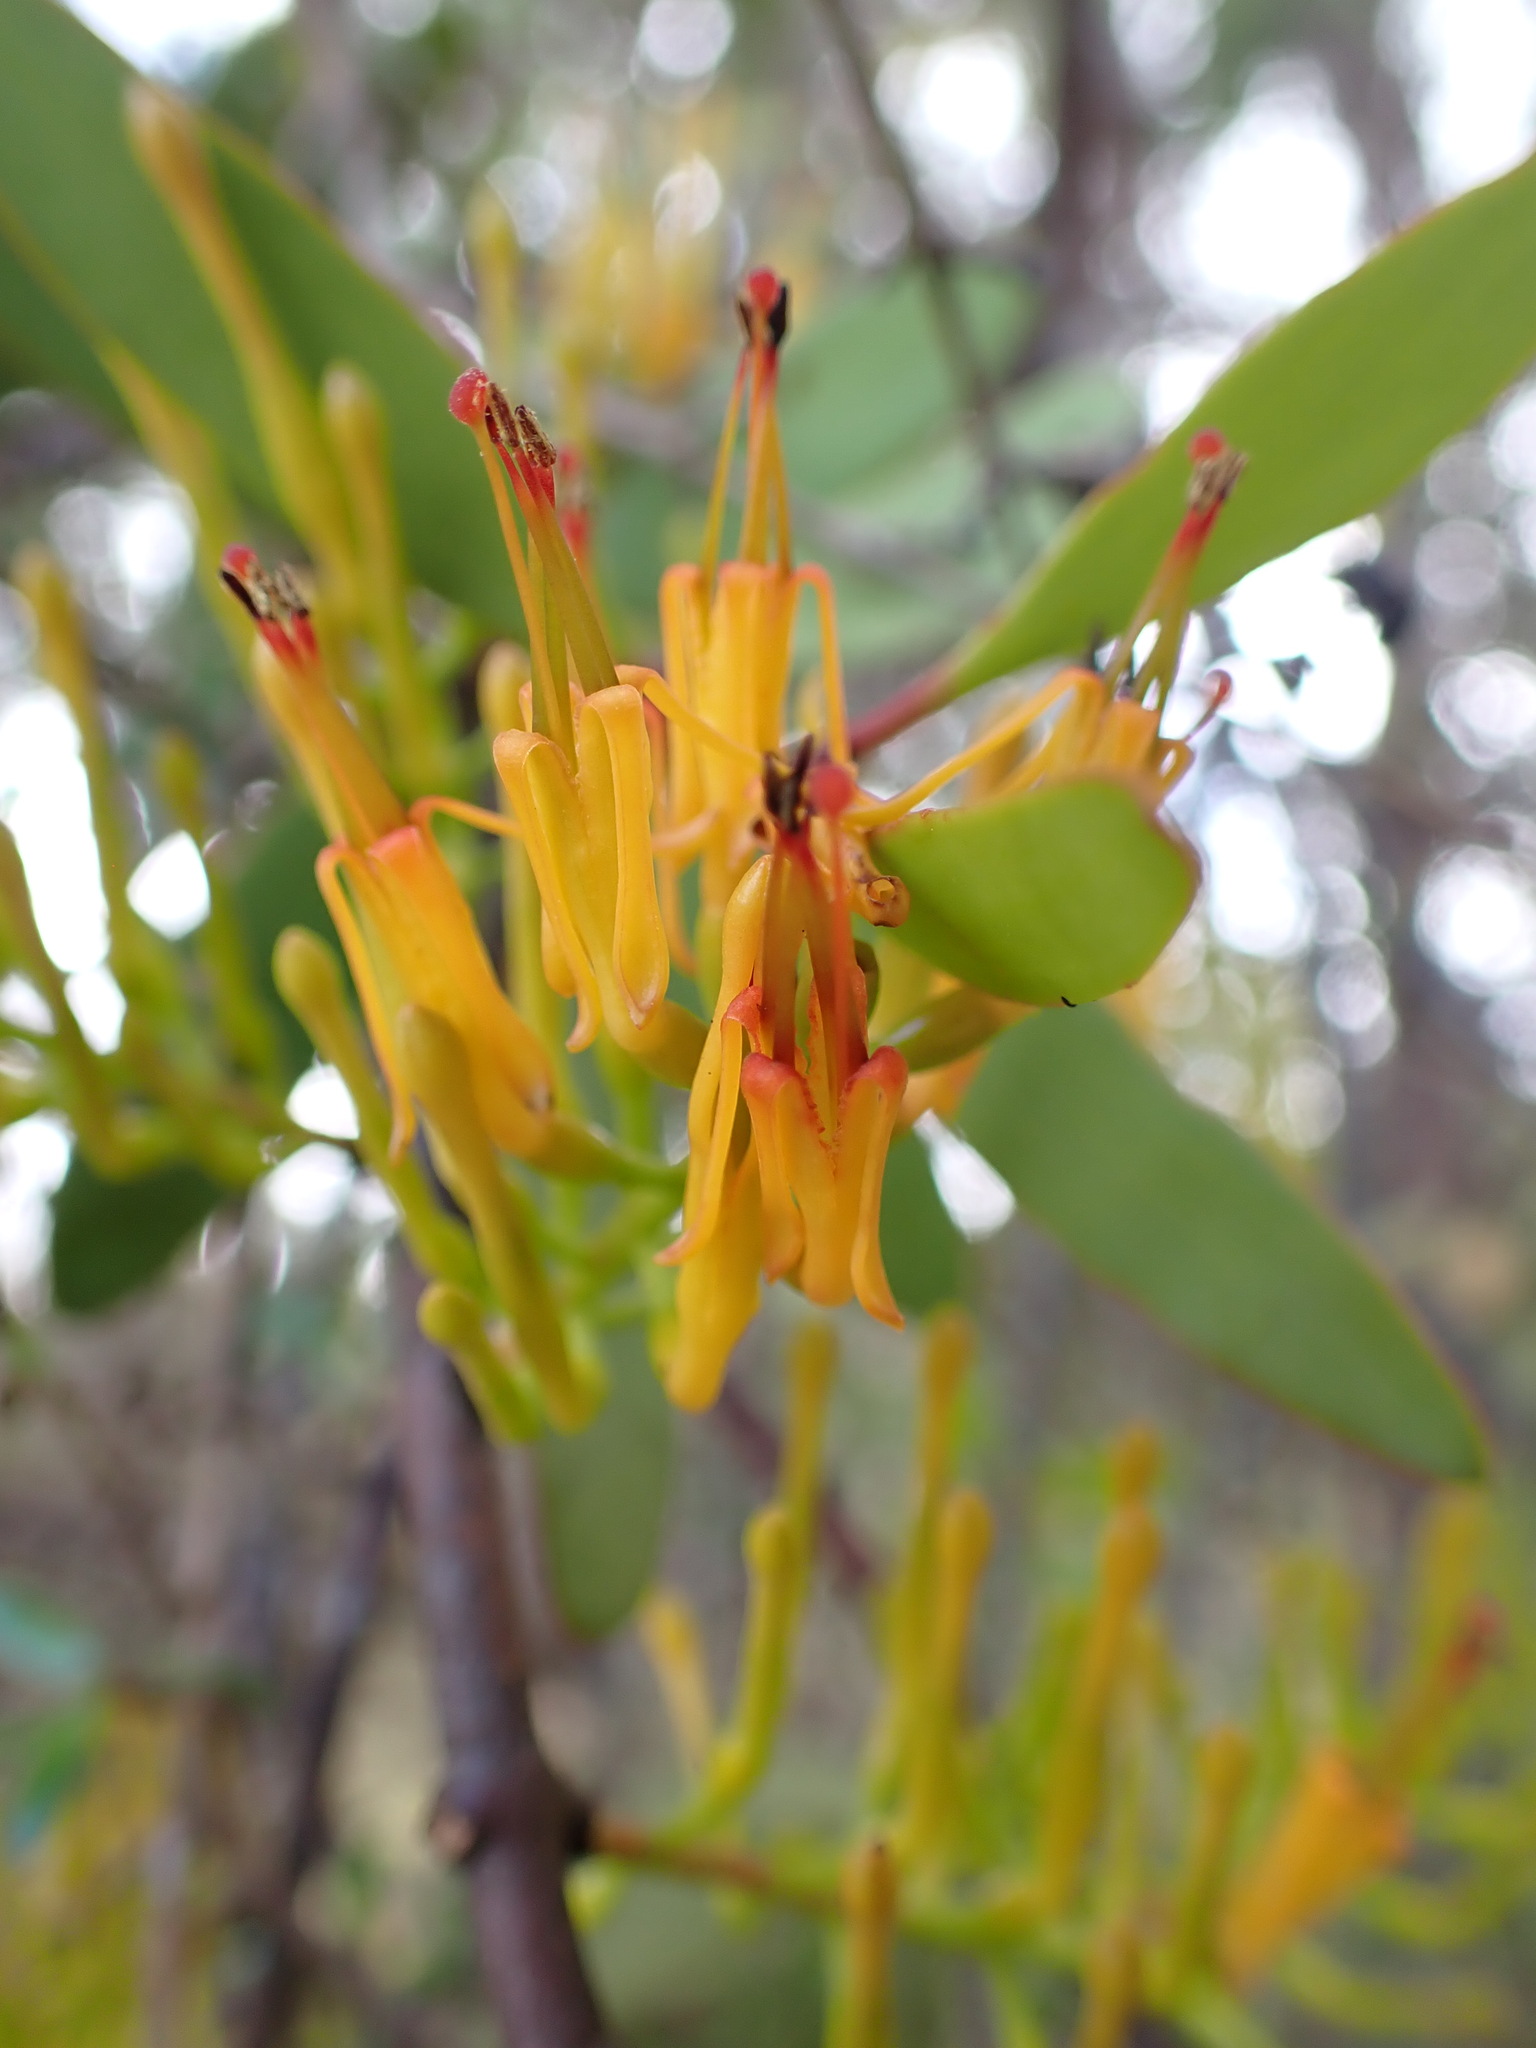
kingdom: Plantae
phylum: Tracheophyta
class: Magnoliopsida
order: Santalales
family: Loranthaceae
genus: Alepis
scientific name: Alepis flavida
